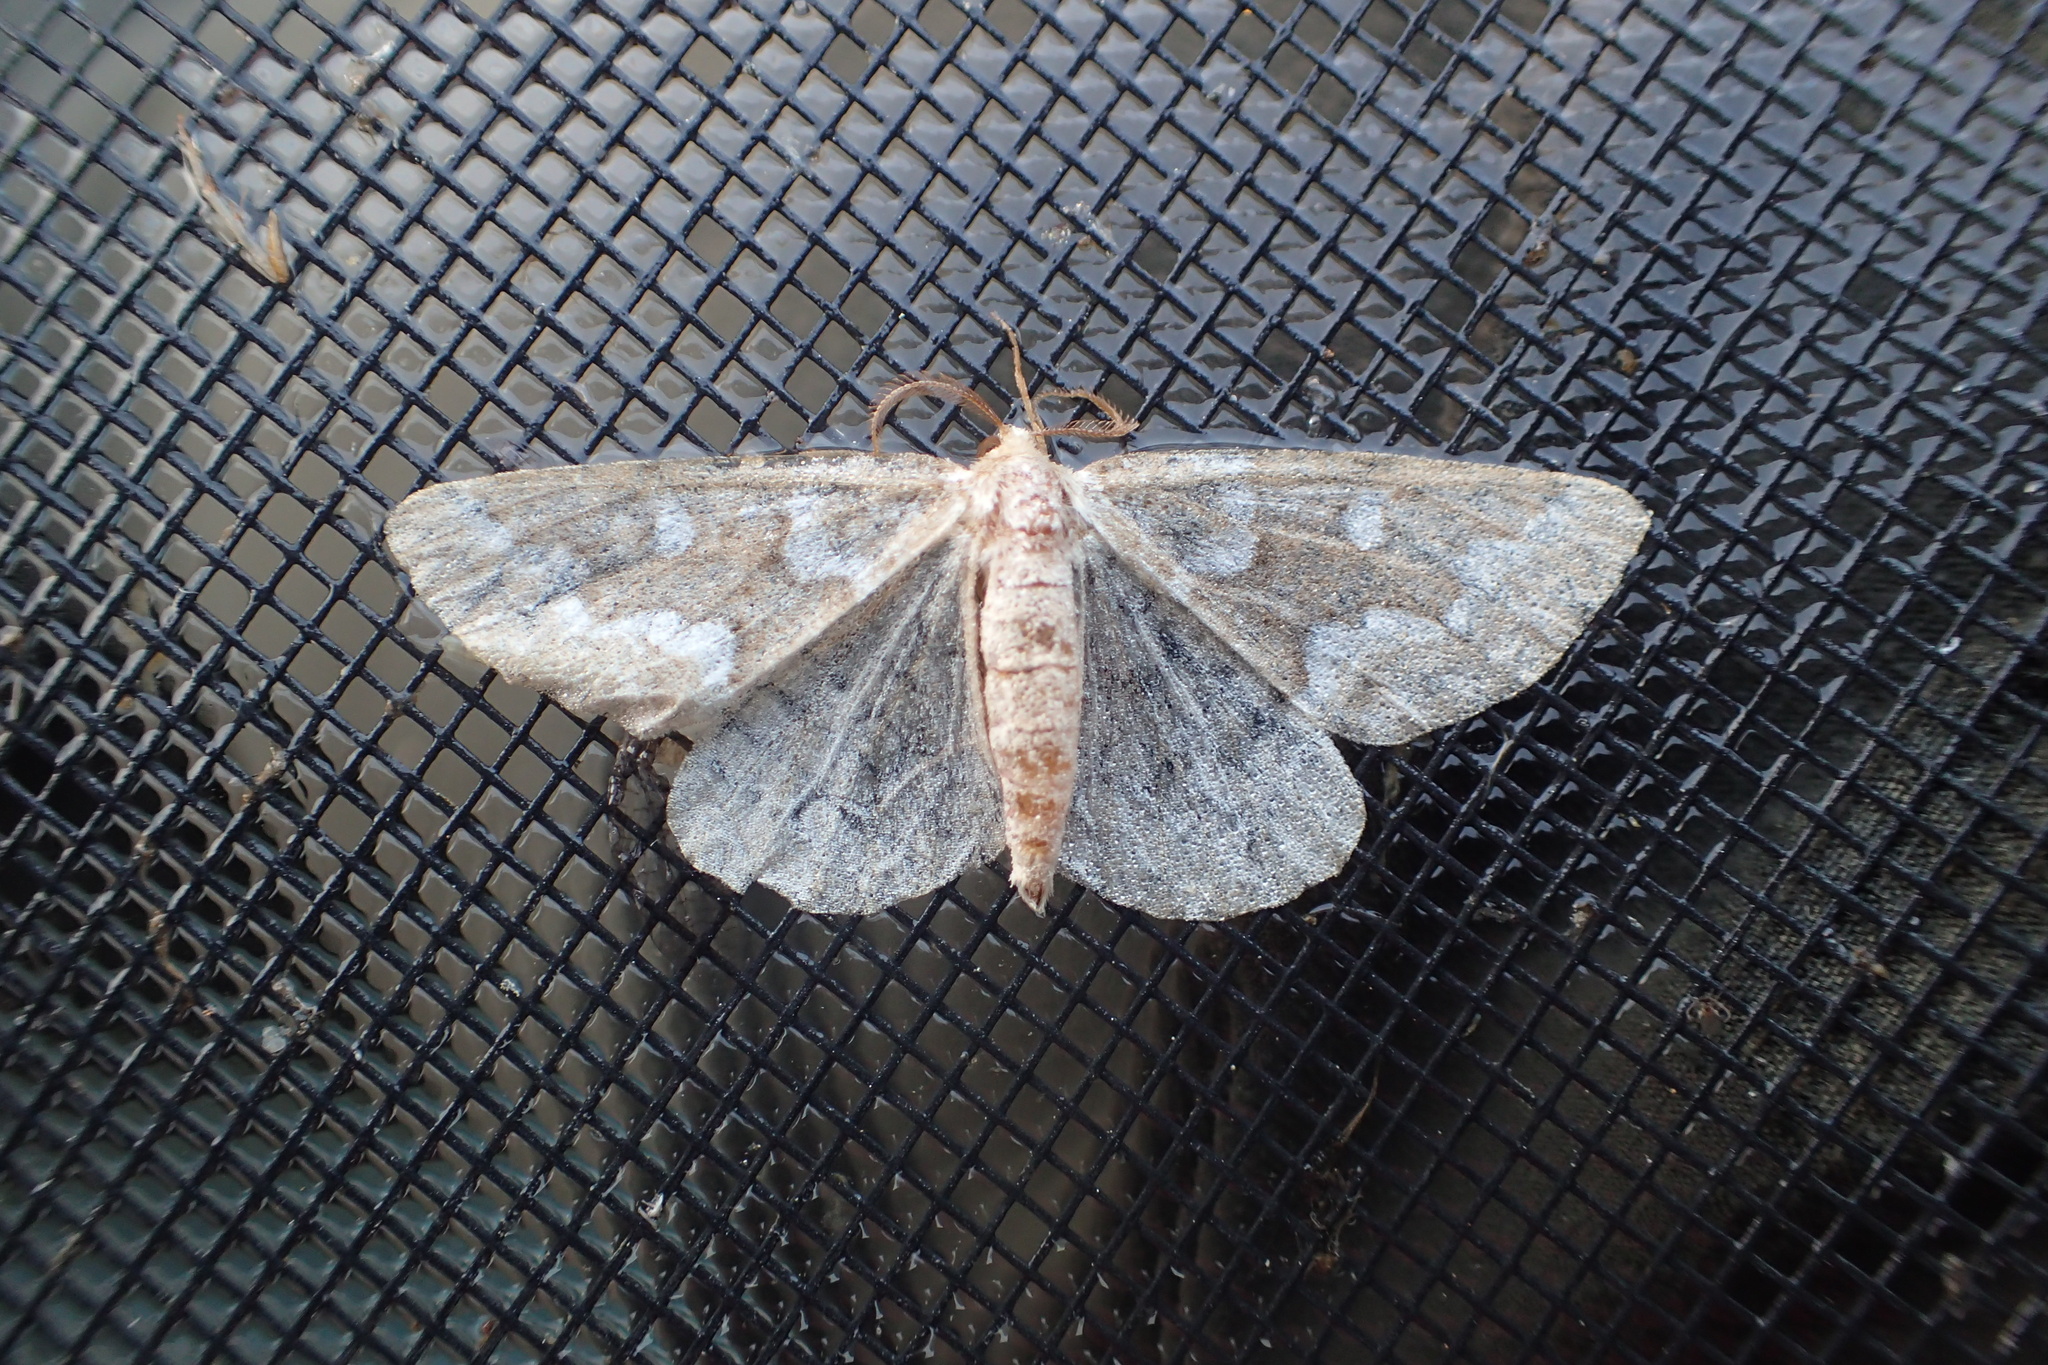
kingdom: Animalia
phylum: Arthropoda
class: Insecta
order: Lepidoptera
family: Geometridae
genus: Caripeta
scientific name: Caripeta divisata
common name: Gray spruce looper
